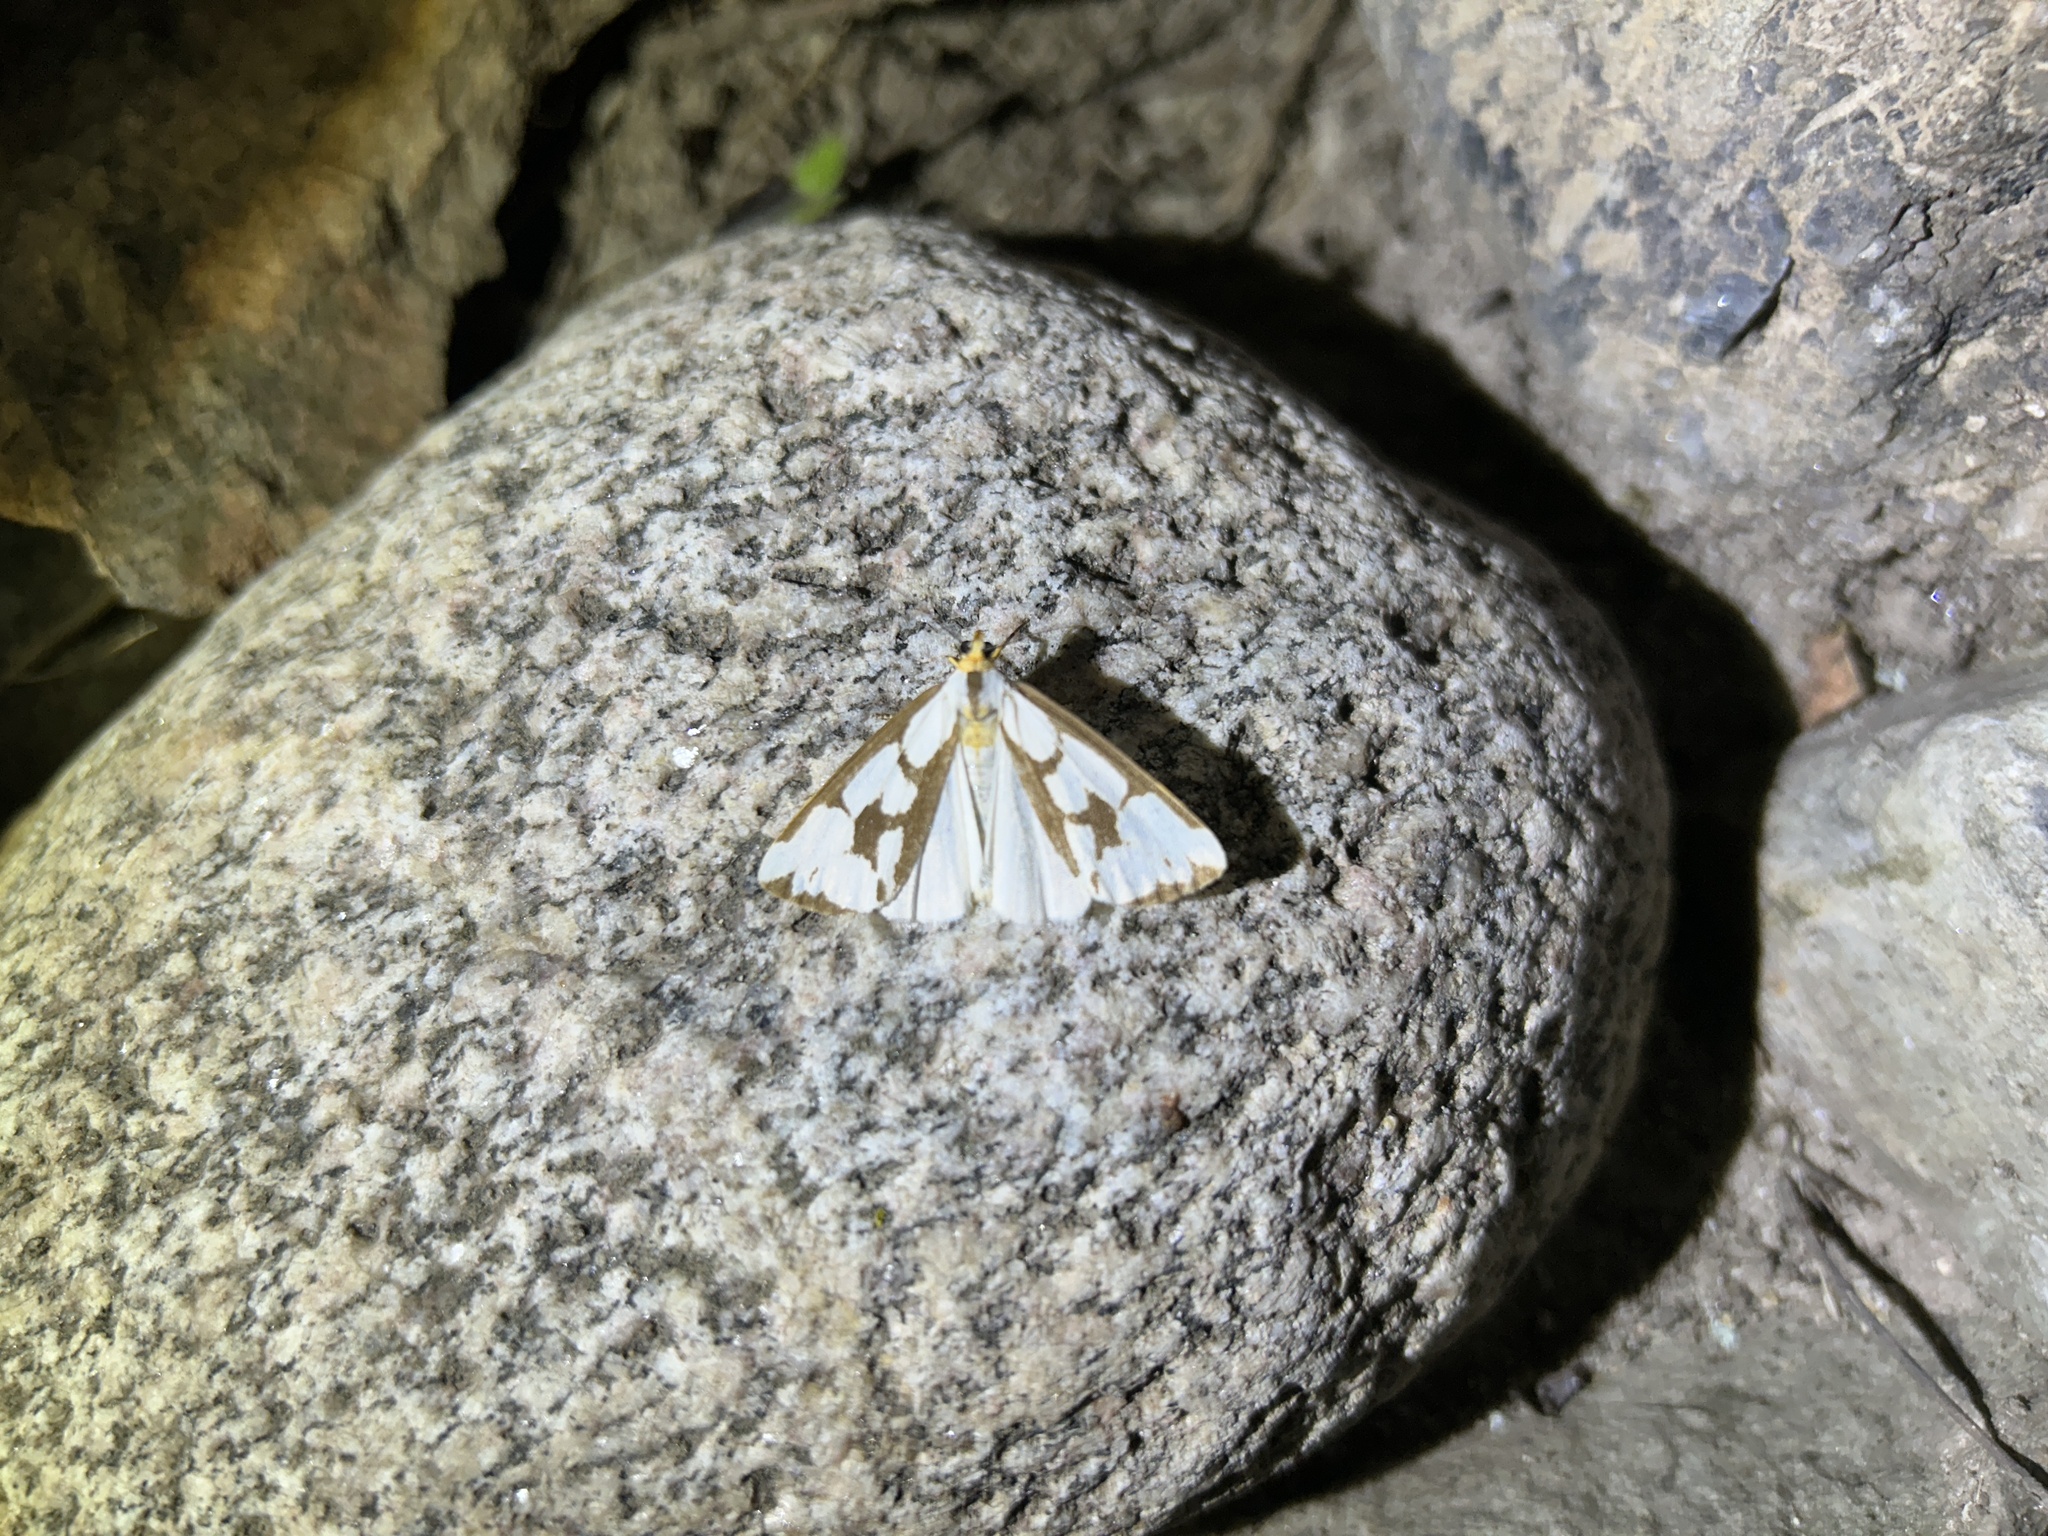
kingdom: Animalia
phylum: Arthropoda
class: Insecta
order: Lepidoptera
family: Erebidae
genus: Haploa
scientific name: Haploa confusa
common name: Confused haploa moth
